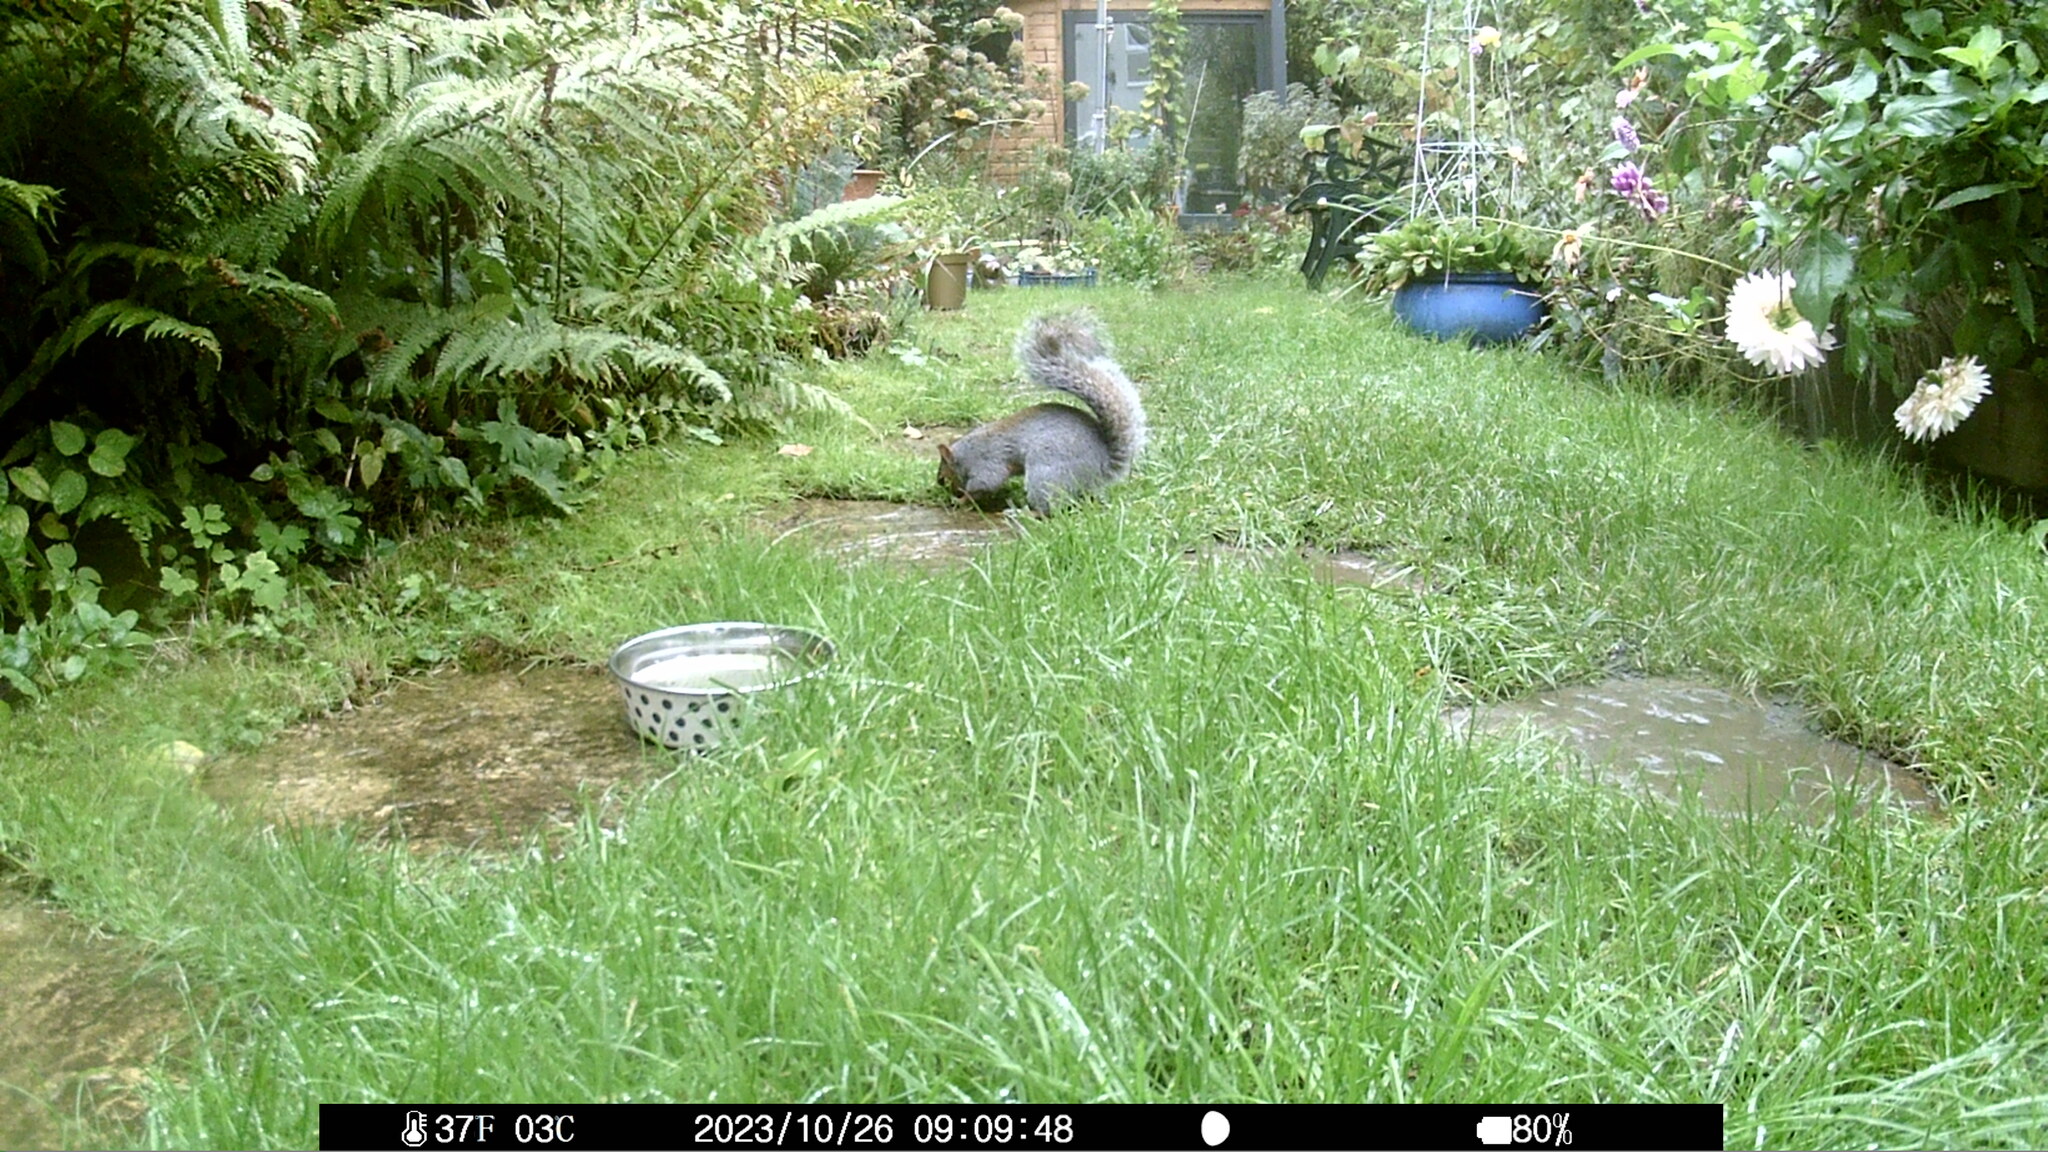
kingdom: Animalia
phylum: Chordata
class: Mammalia
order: Rodentia
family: Sciuridae
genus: Sciurus
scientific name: Sciurus carolinensis
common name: Eastern gray squirrel
